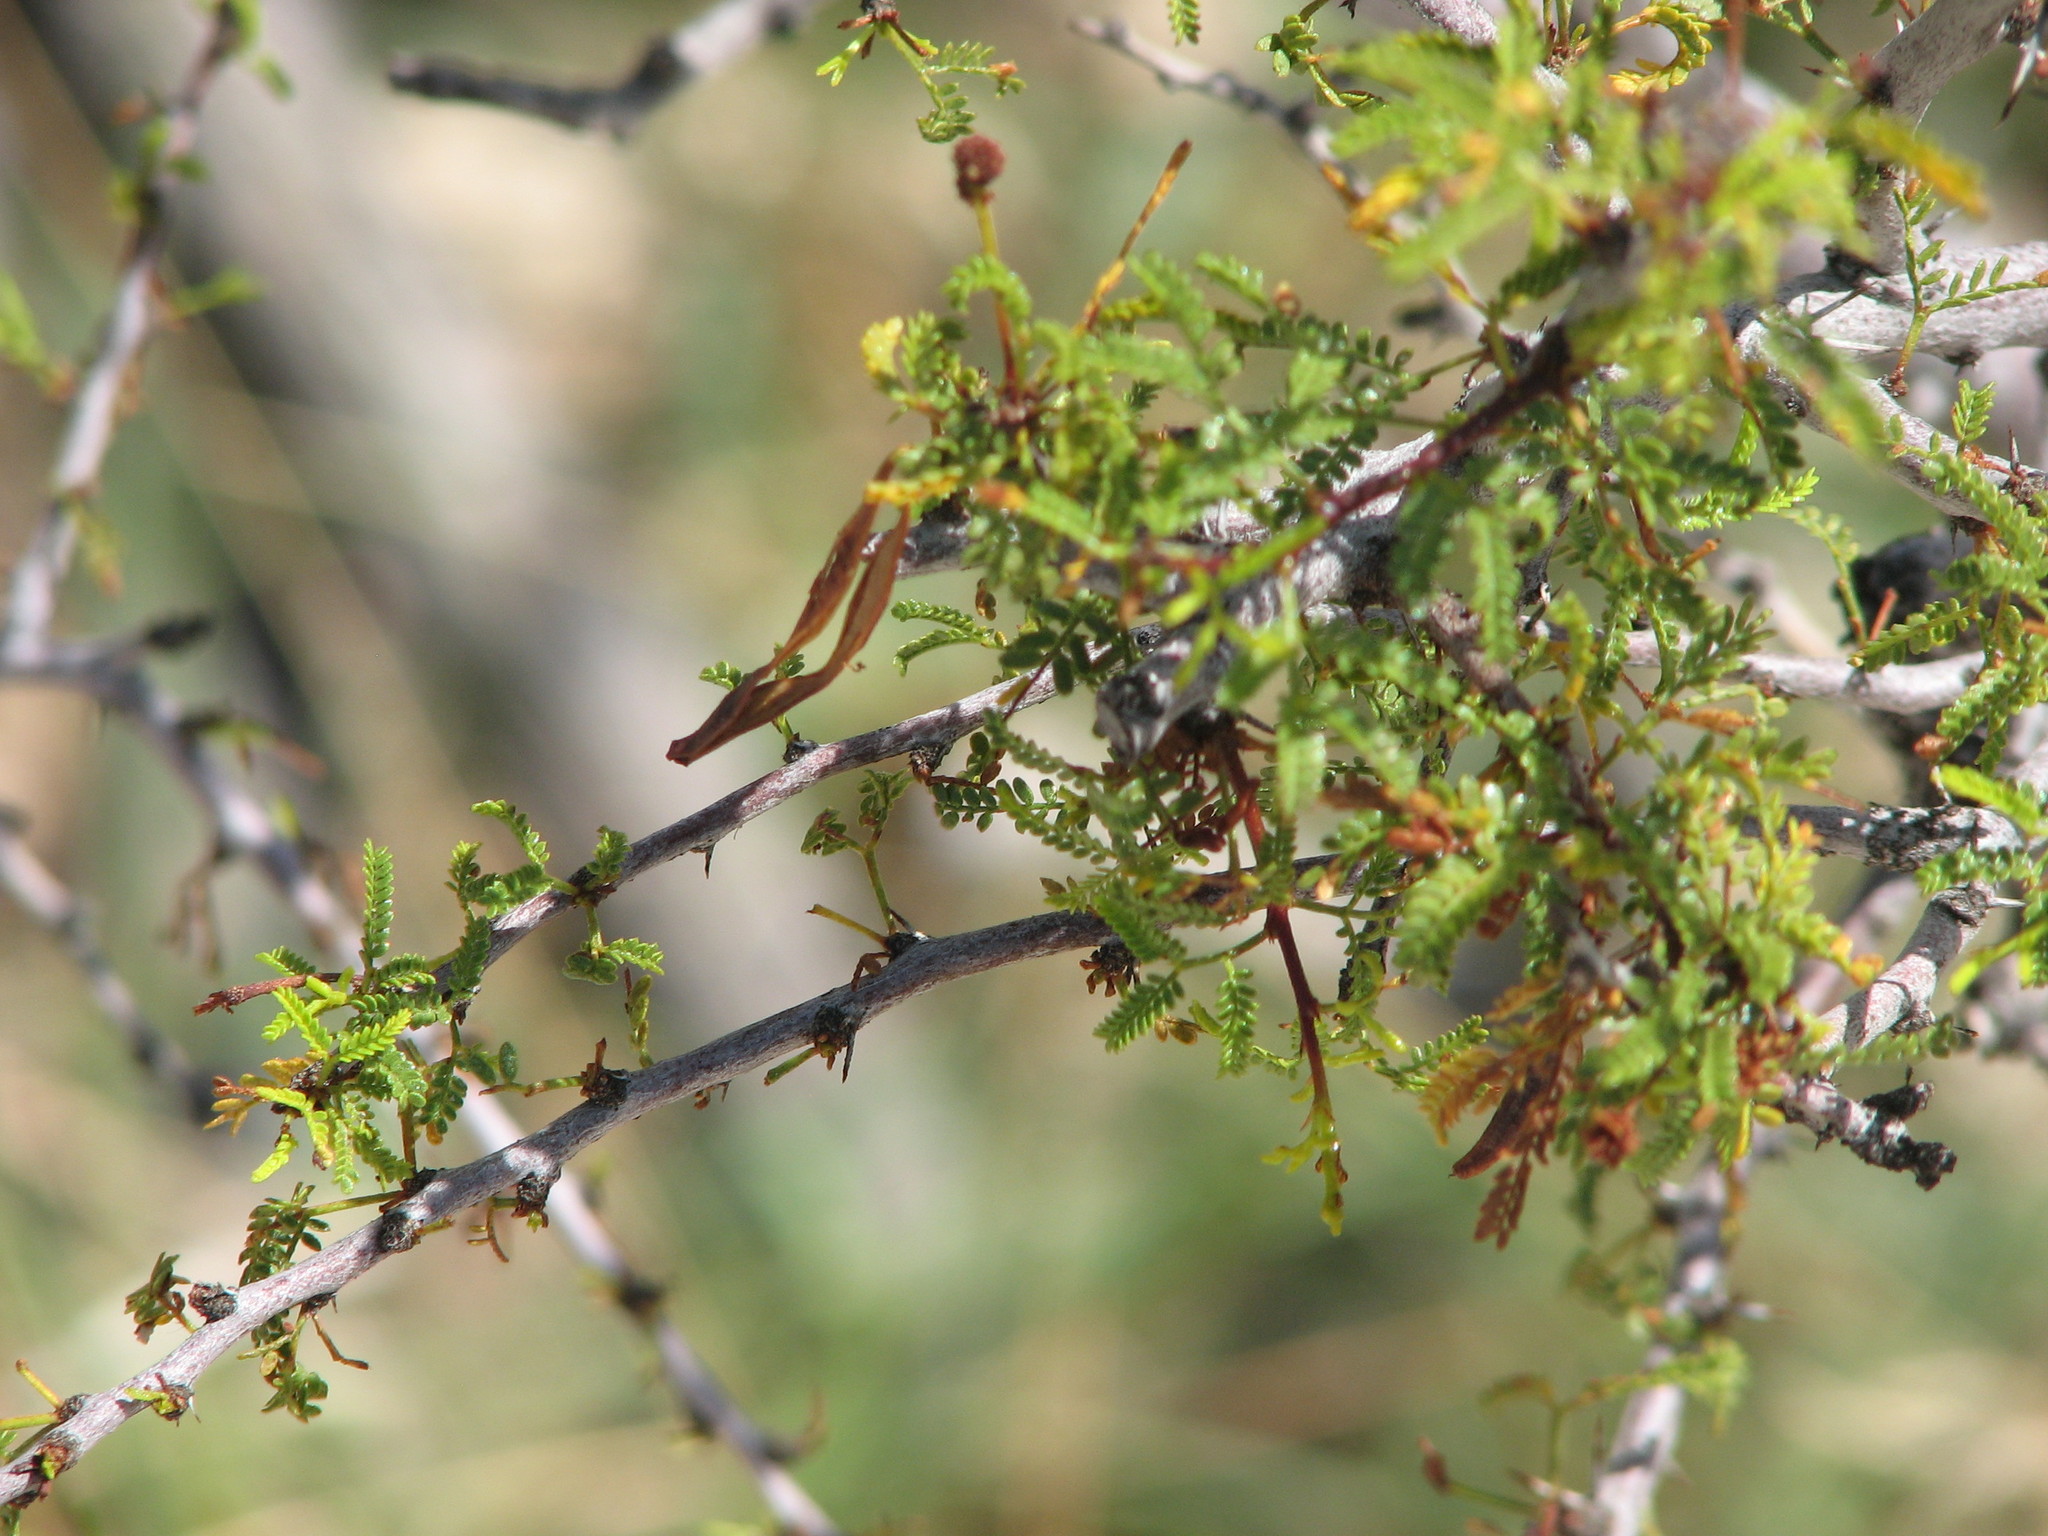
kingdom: Plantae
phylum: Tracheophyta
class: Magnoliopsida
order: Fabales
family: Fabaceae
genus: Vachellia
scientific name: Vachellia vernicosa
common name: Viscid acacia
